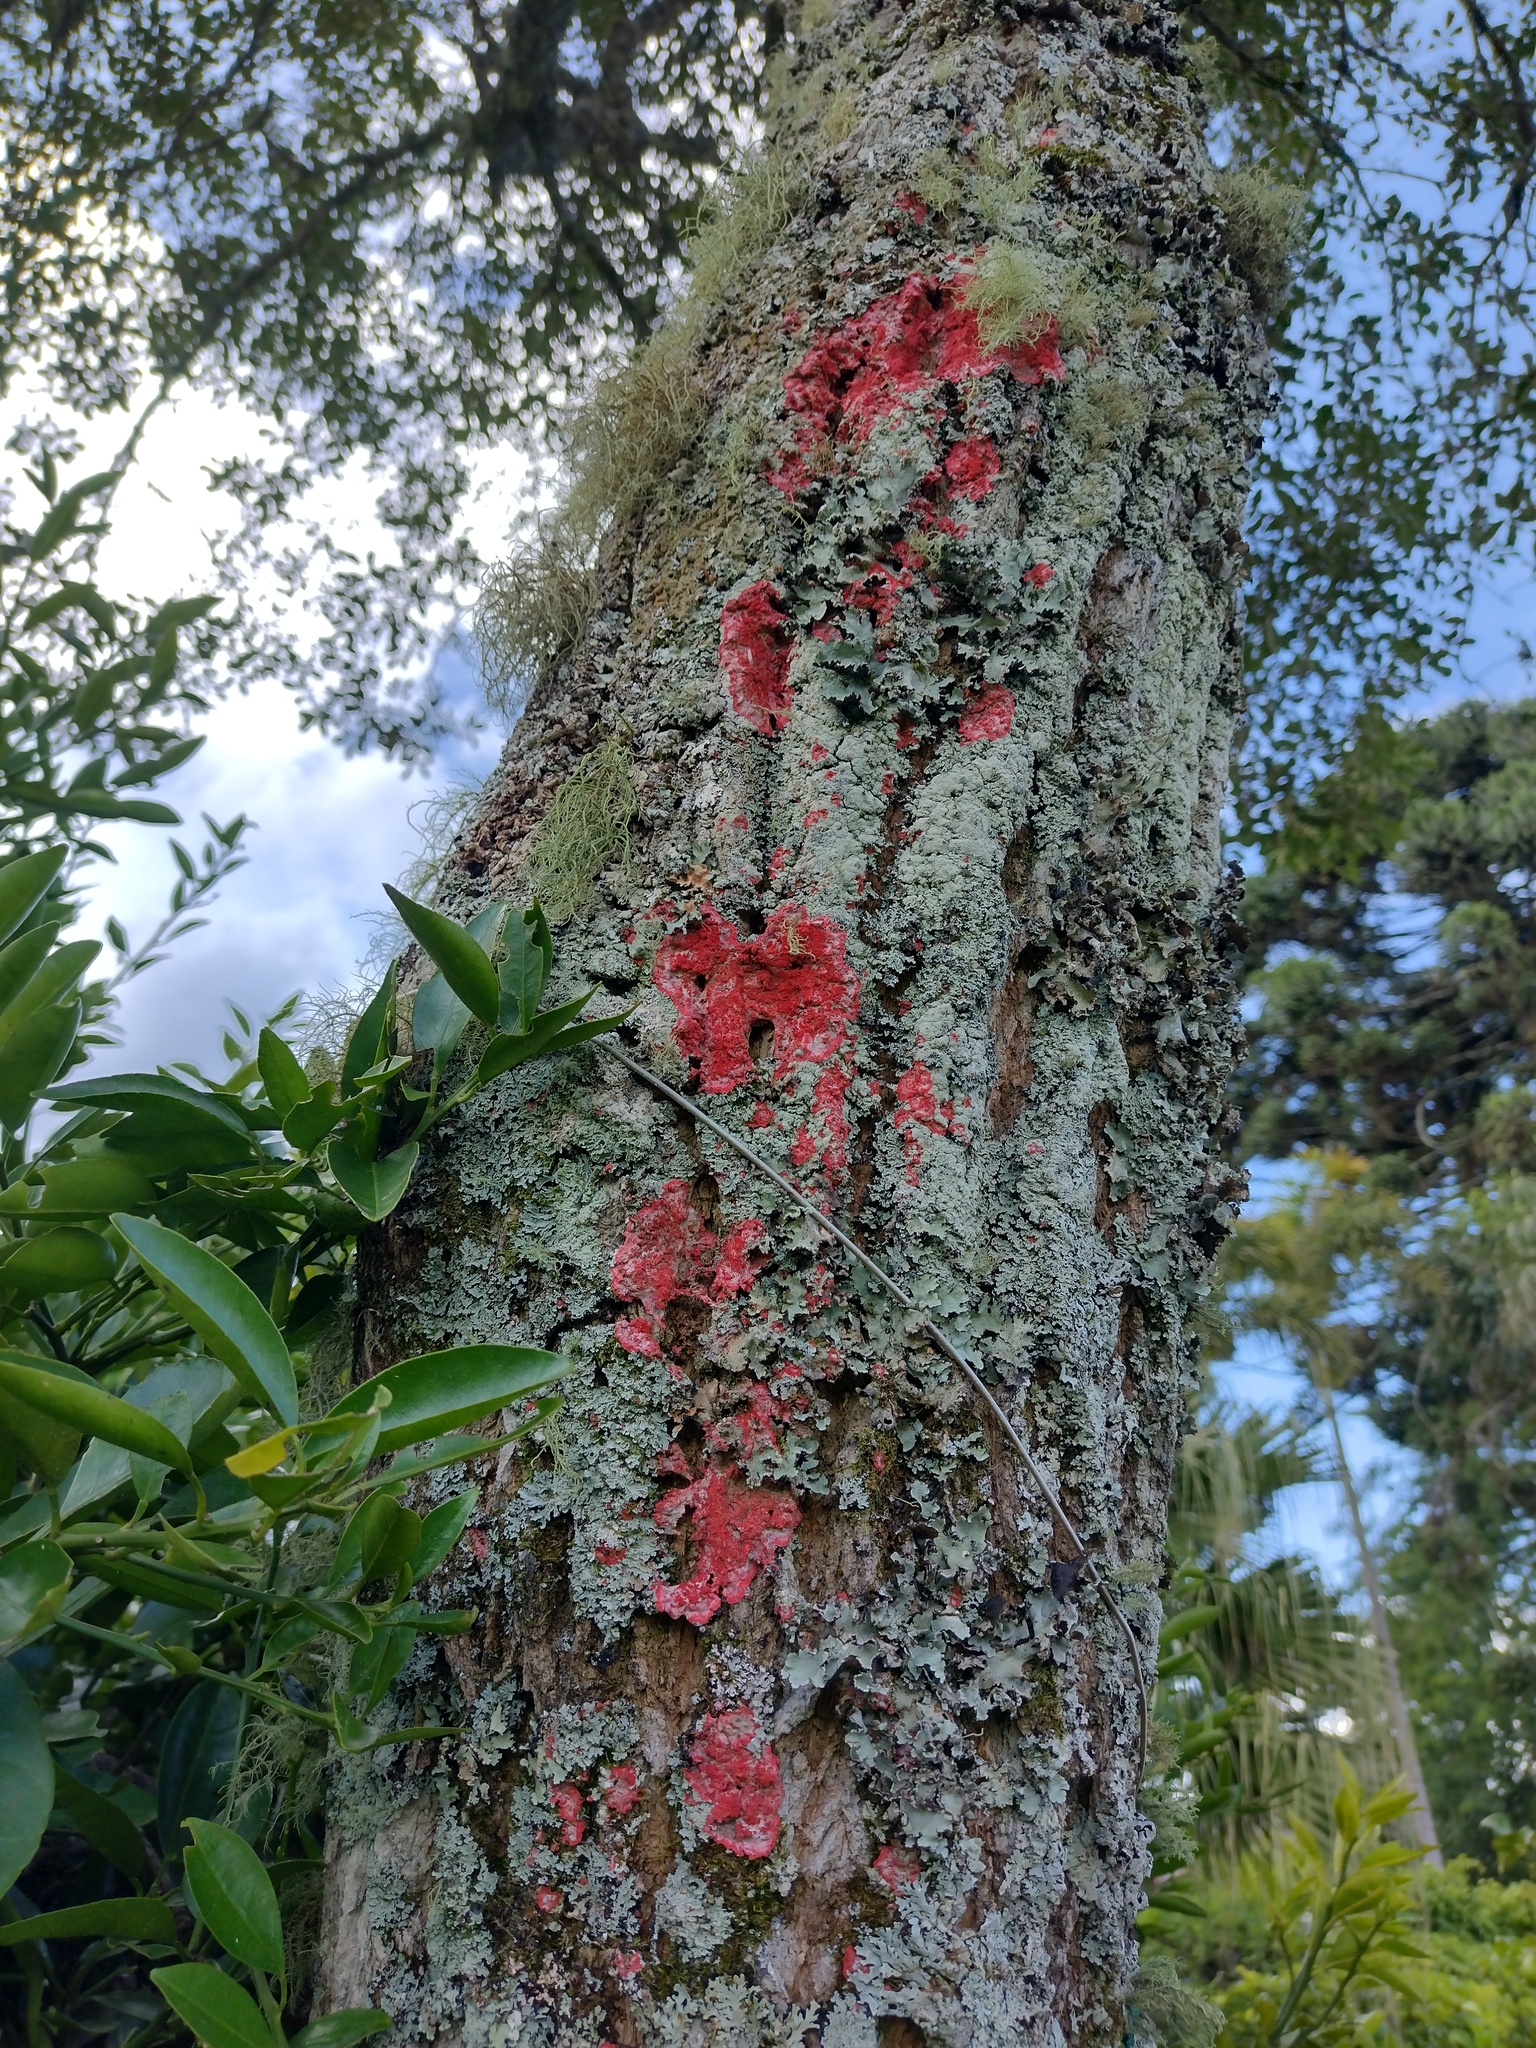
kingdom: Fungi
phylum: Ascomycota
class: Arthoniomycetes
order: Arthoniales
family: Arthoniaceae
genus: Herpothallon
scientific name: Herpothallon rubrocinctum
